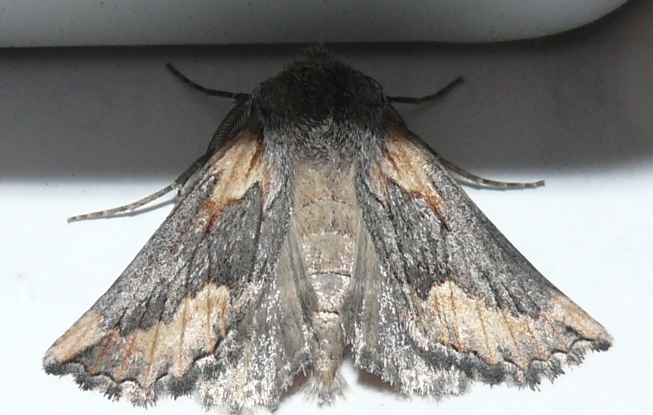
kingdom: Animalia
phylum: Arthropoda
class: Insecta
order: Lepidoptera
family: Geometridae
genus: Axiodes
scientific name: Axiodes
